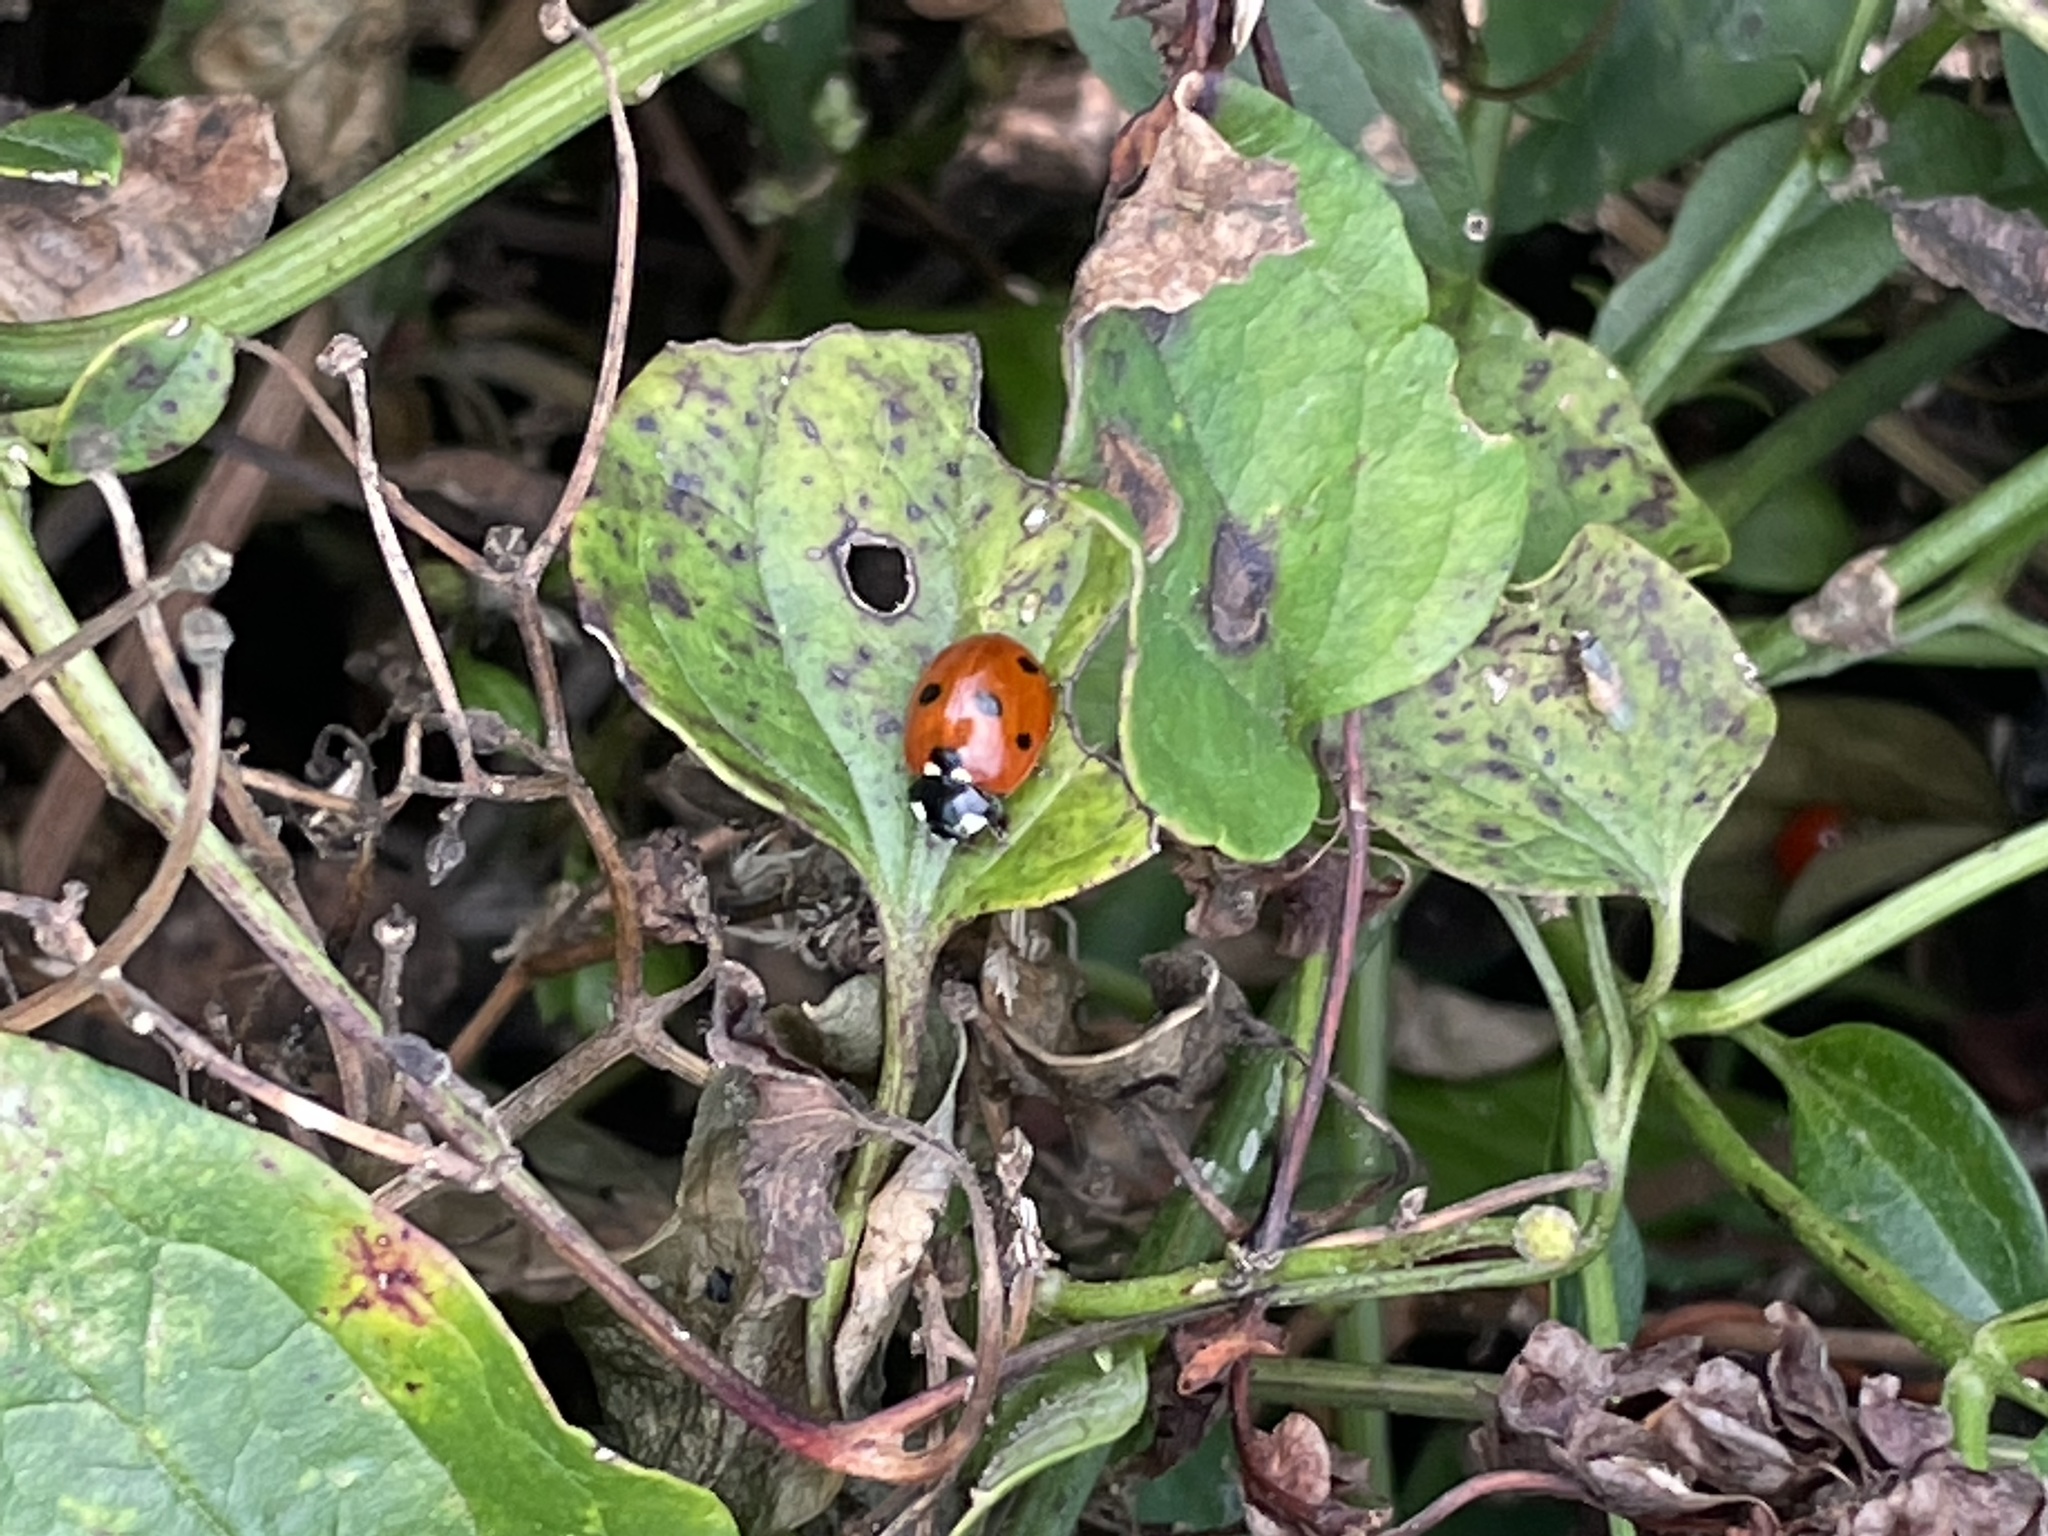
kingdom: Animalia
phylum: Arthropoda
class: Insecta
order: Coleoptera
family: Coccinellidae
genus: Coccinella
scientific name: Coccinella septempunctata
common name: Sevenspotted lady beetle
